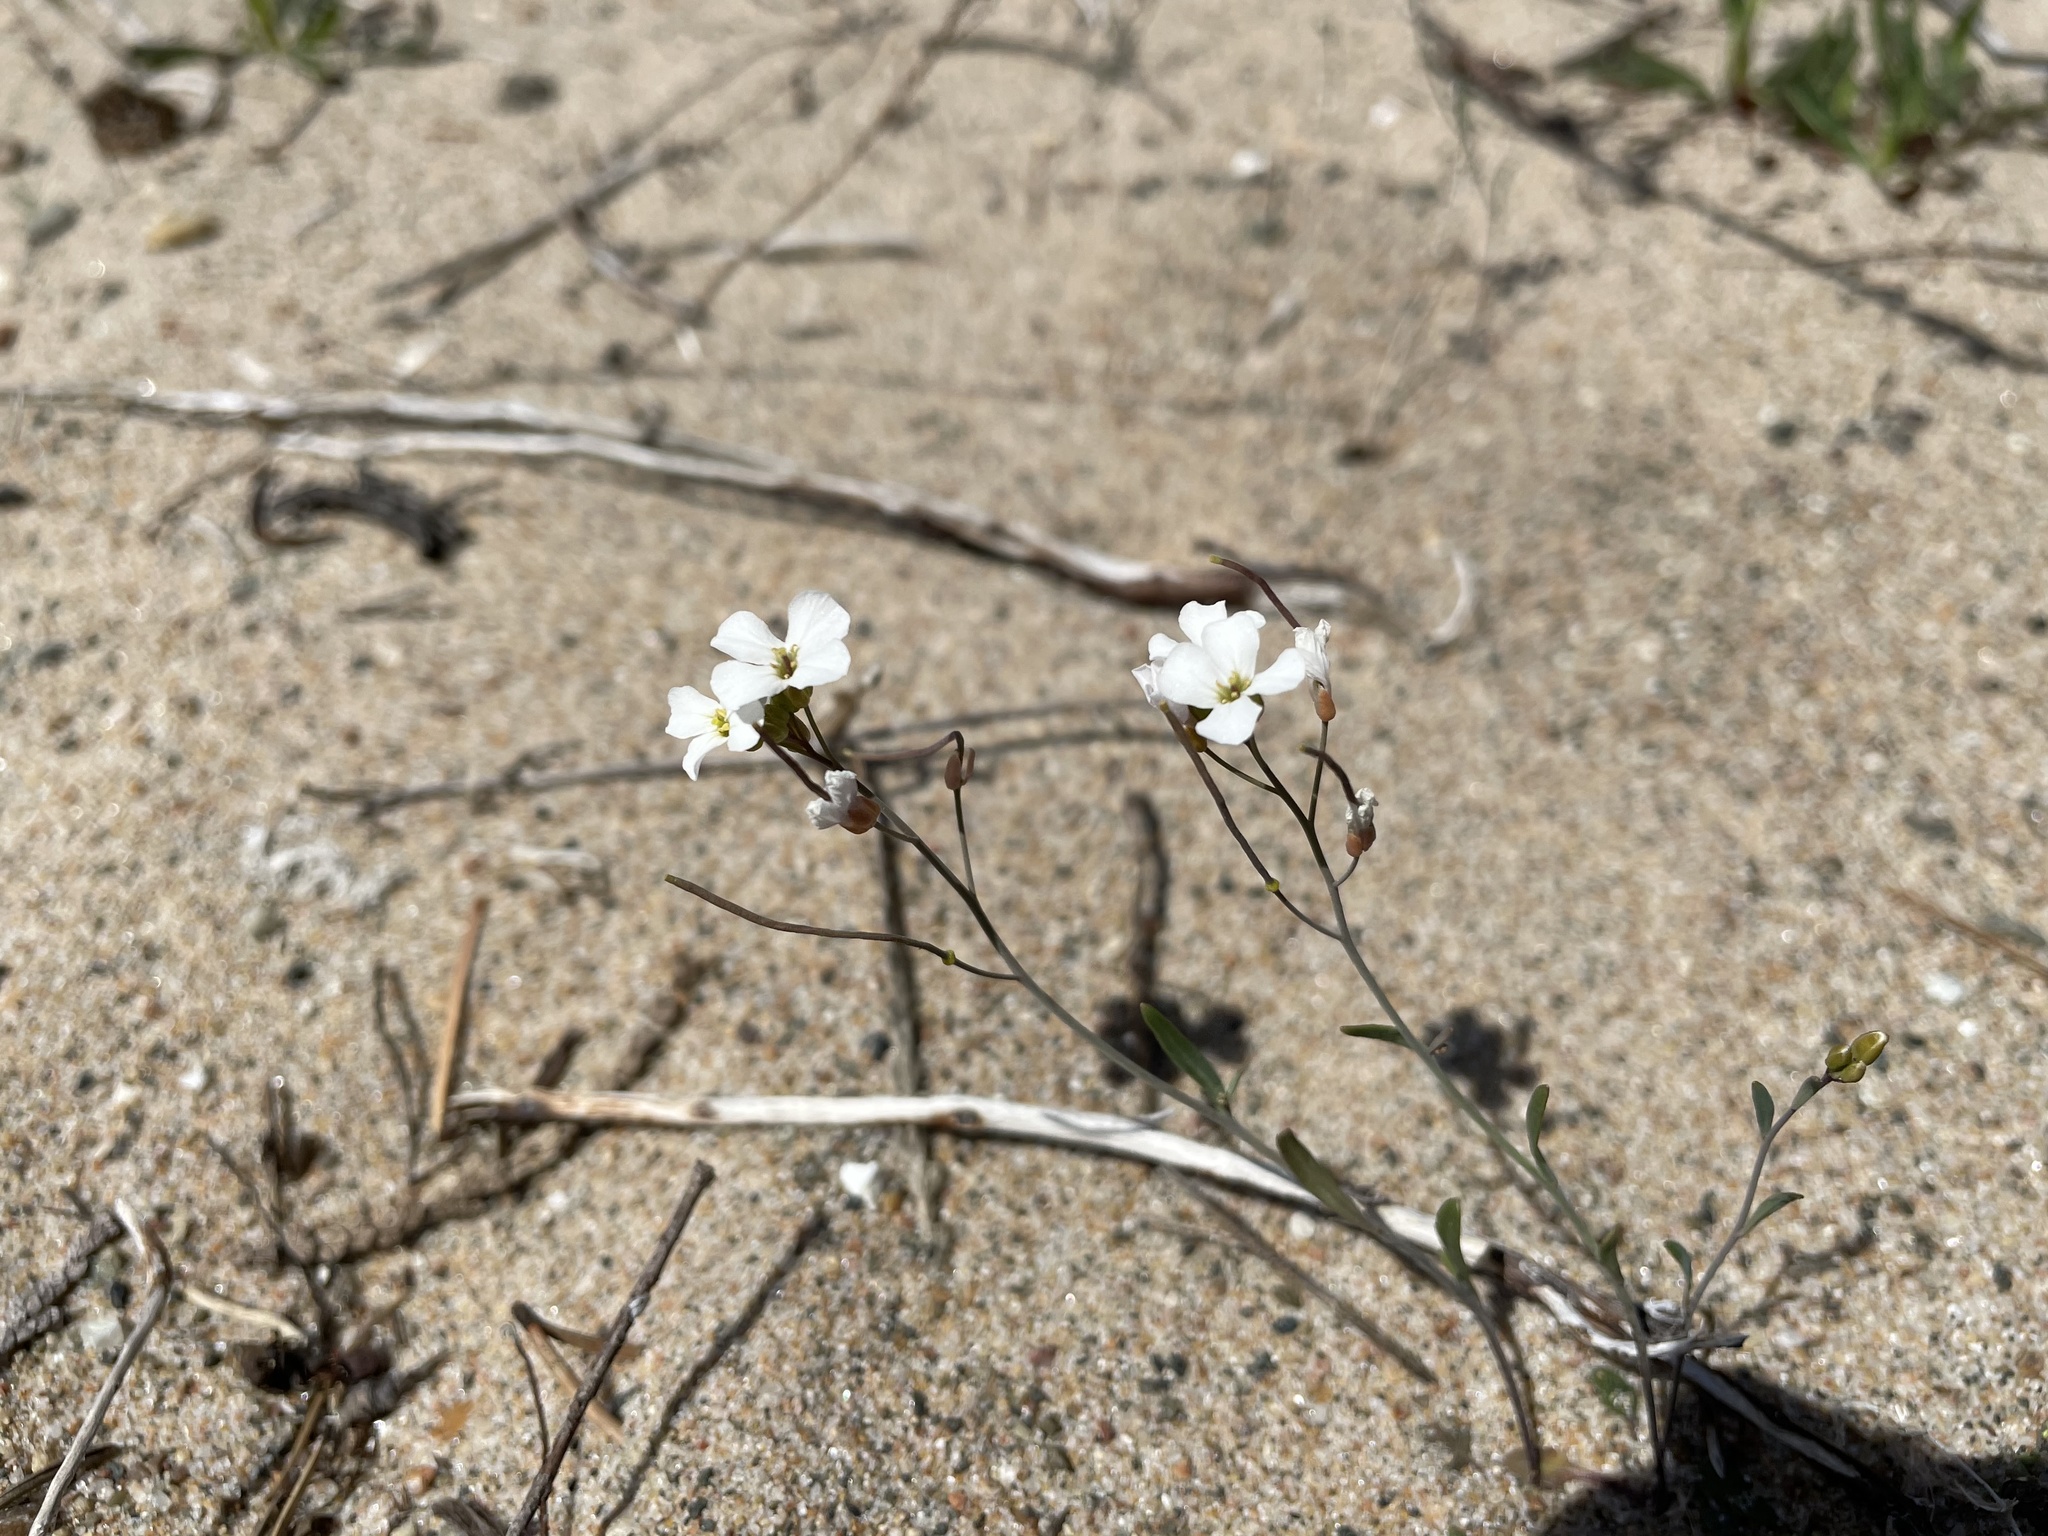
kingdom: Plantae
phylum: Tracheophyta
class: Magnoliopsida
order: Brassicales
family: Brassicaceae
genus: Arabidopsis
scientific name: Arabidopsis lyrata
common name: Lyrate rockcress
